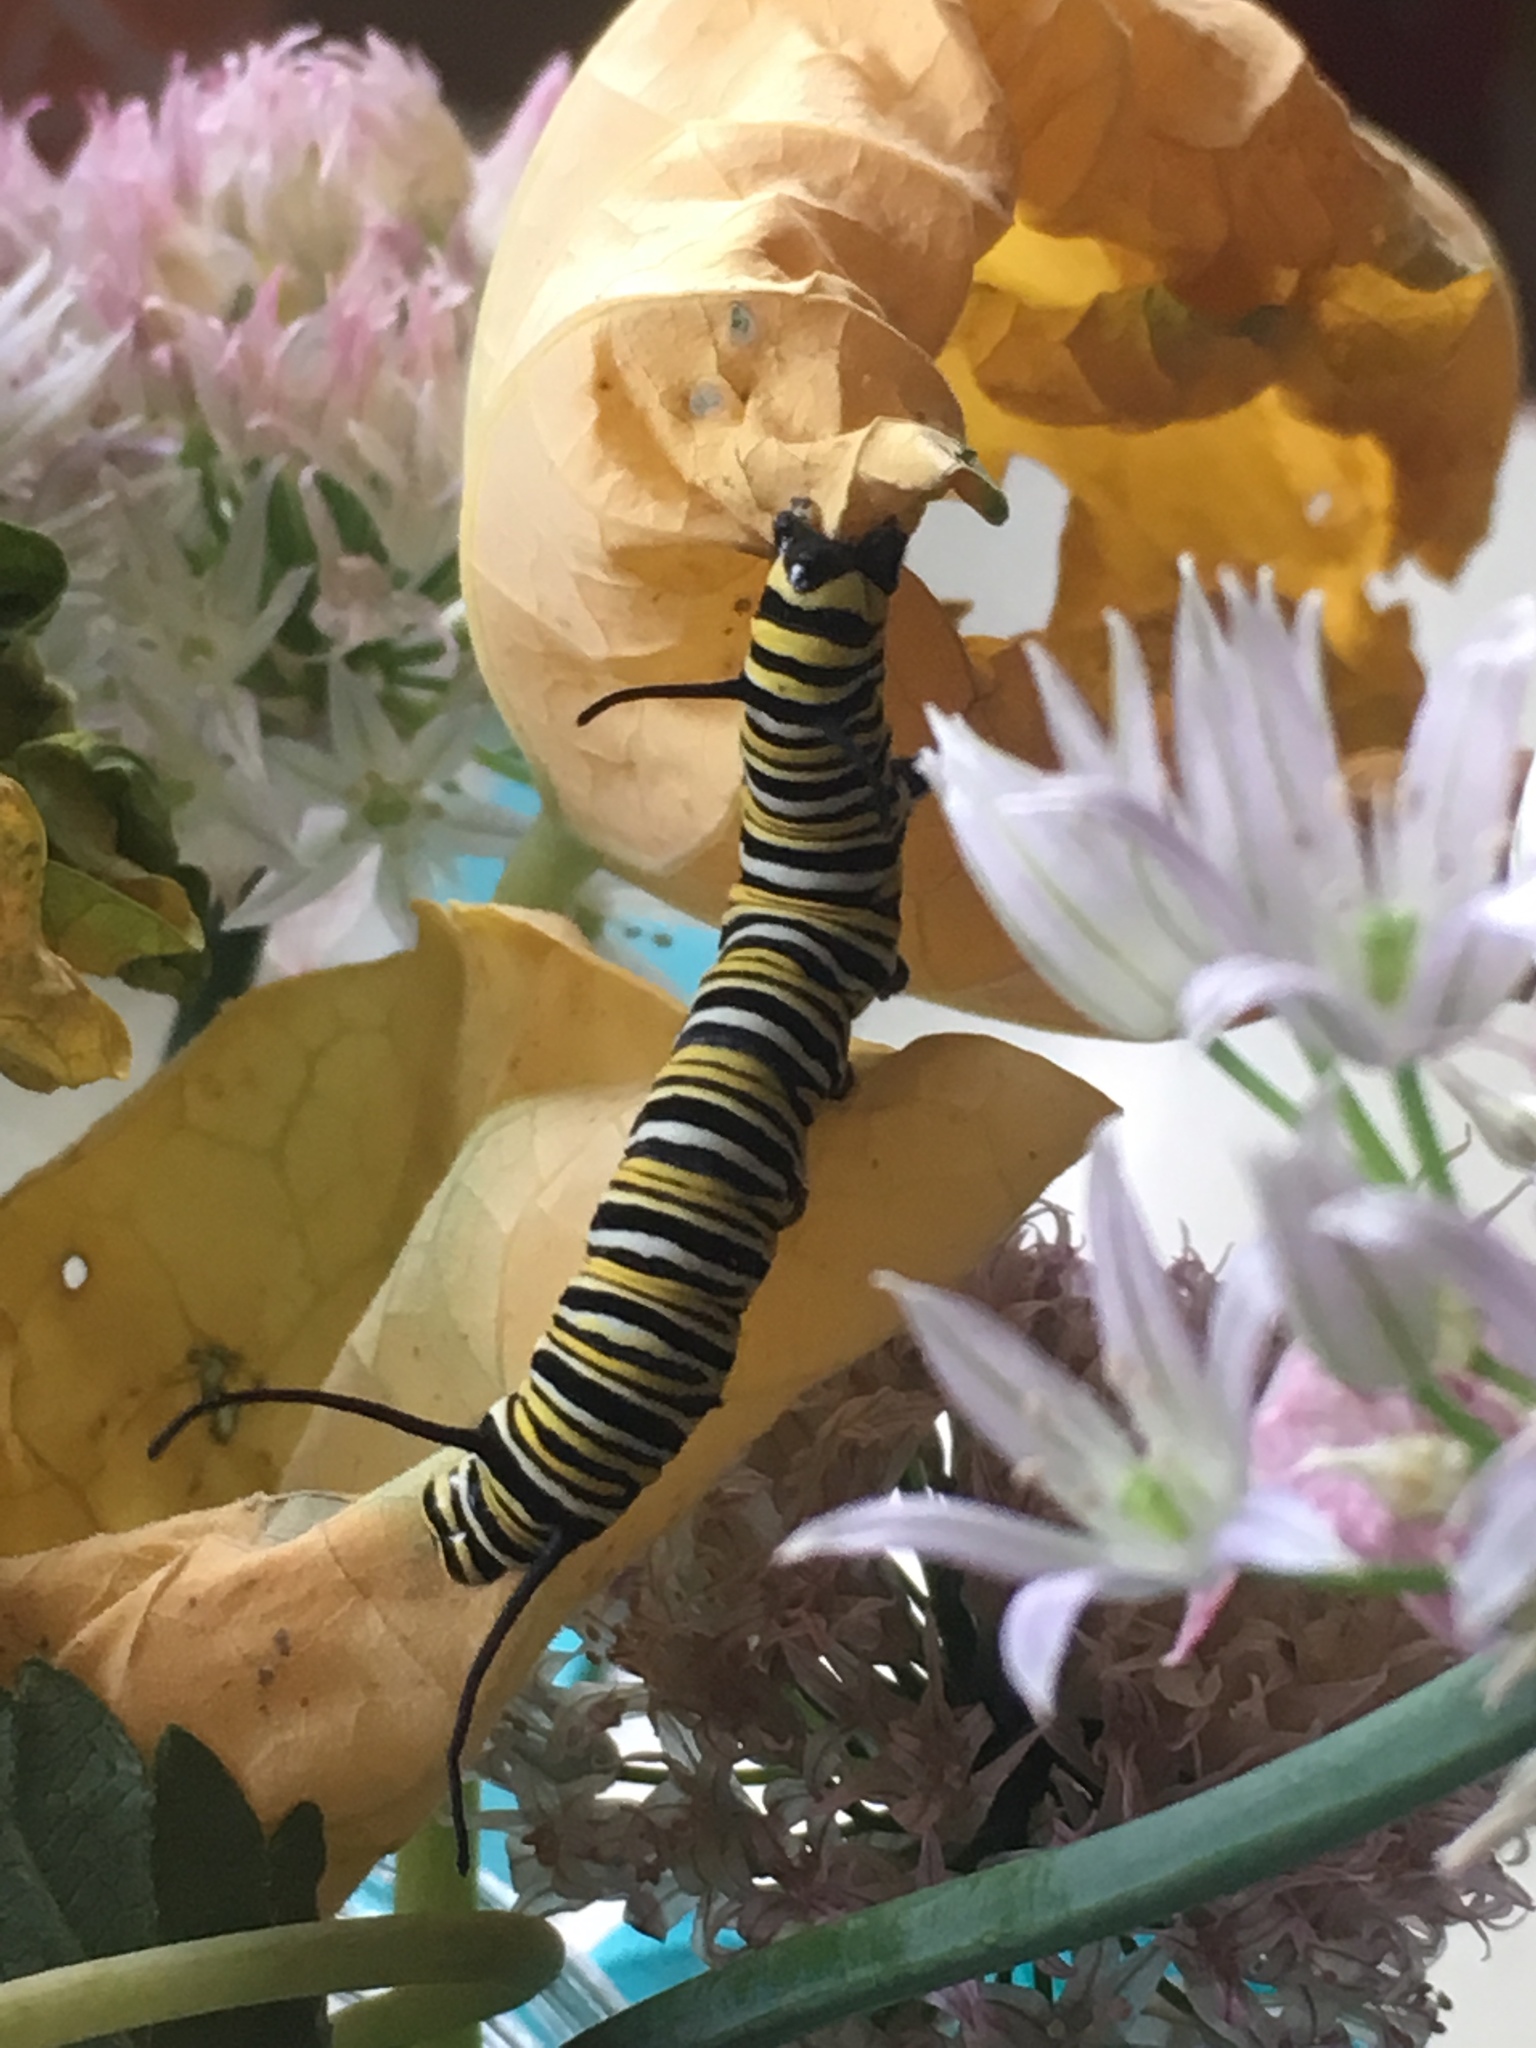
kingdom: Animalia
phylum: Arthropoda
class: Insecta
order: Lepidoptera
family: Nymphalidae
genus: Danaus
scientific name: Danaus plexippus
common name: Monarch
